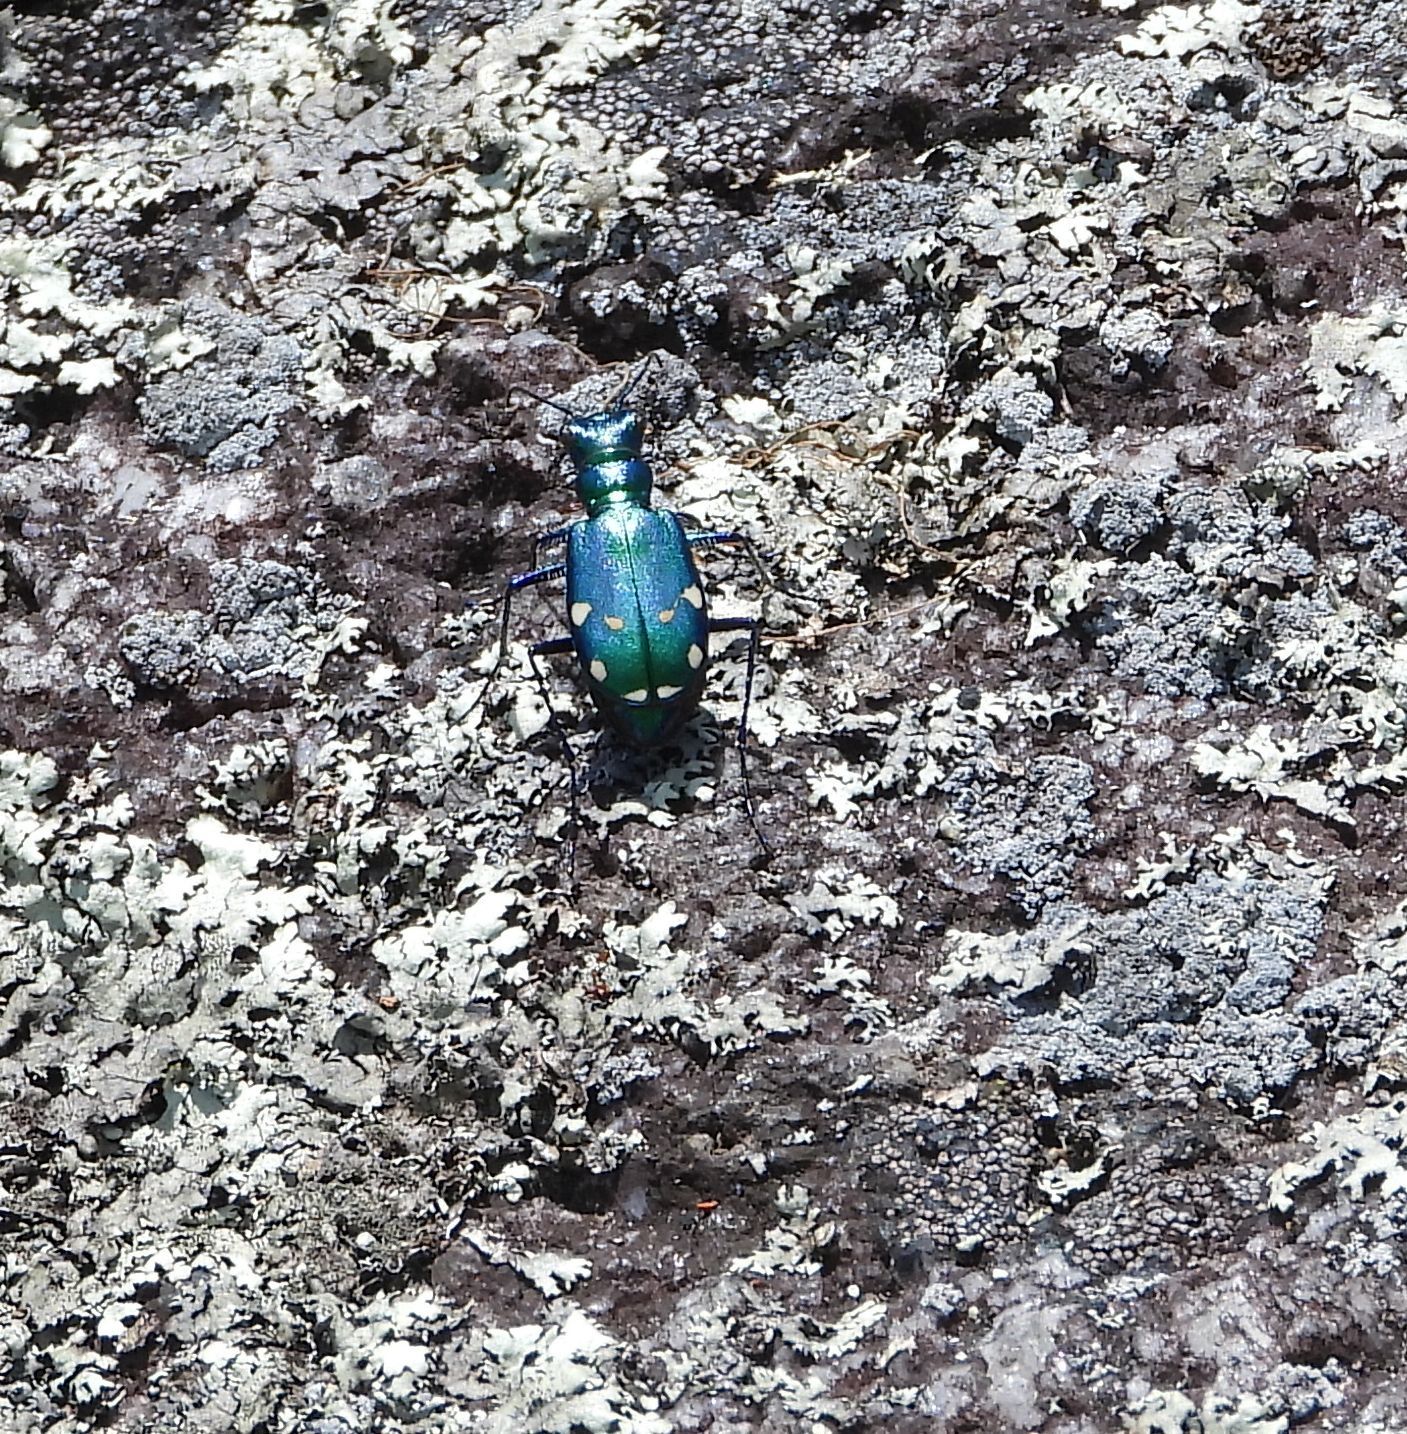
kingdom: Animalia
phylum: Arthropoda
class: Insecta
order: Coleoptera
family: Carabidae
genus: Cicindela
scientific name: Cicindela sexguttata
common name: Six-spotted tiger beetle
